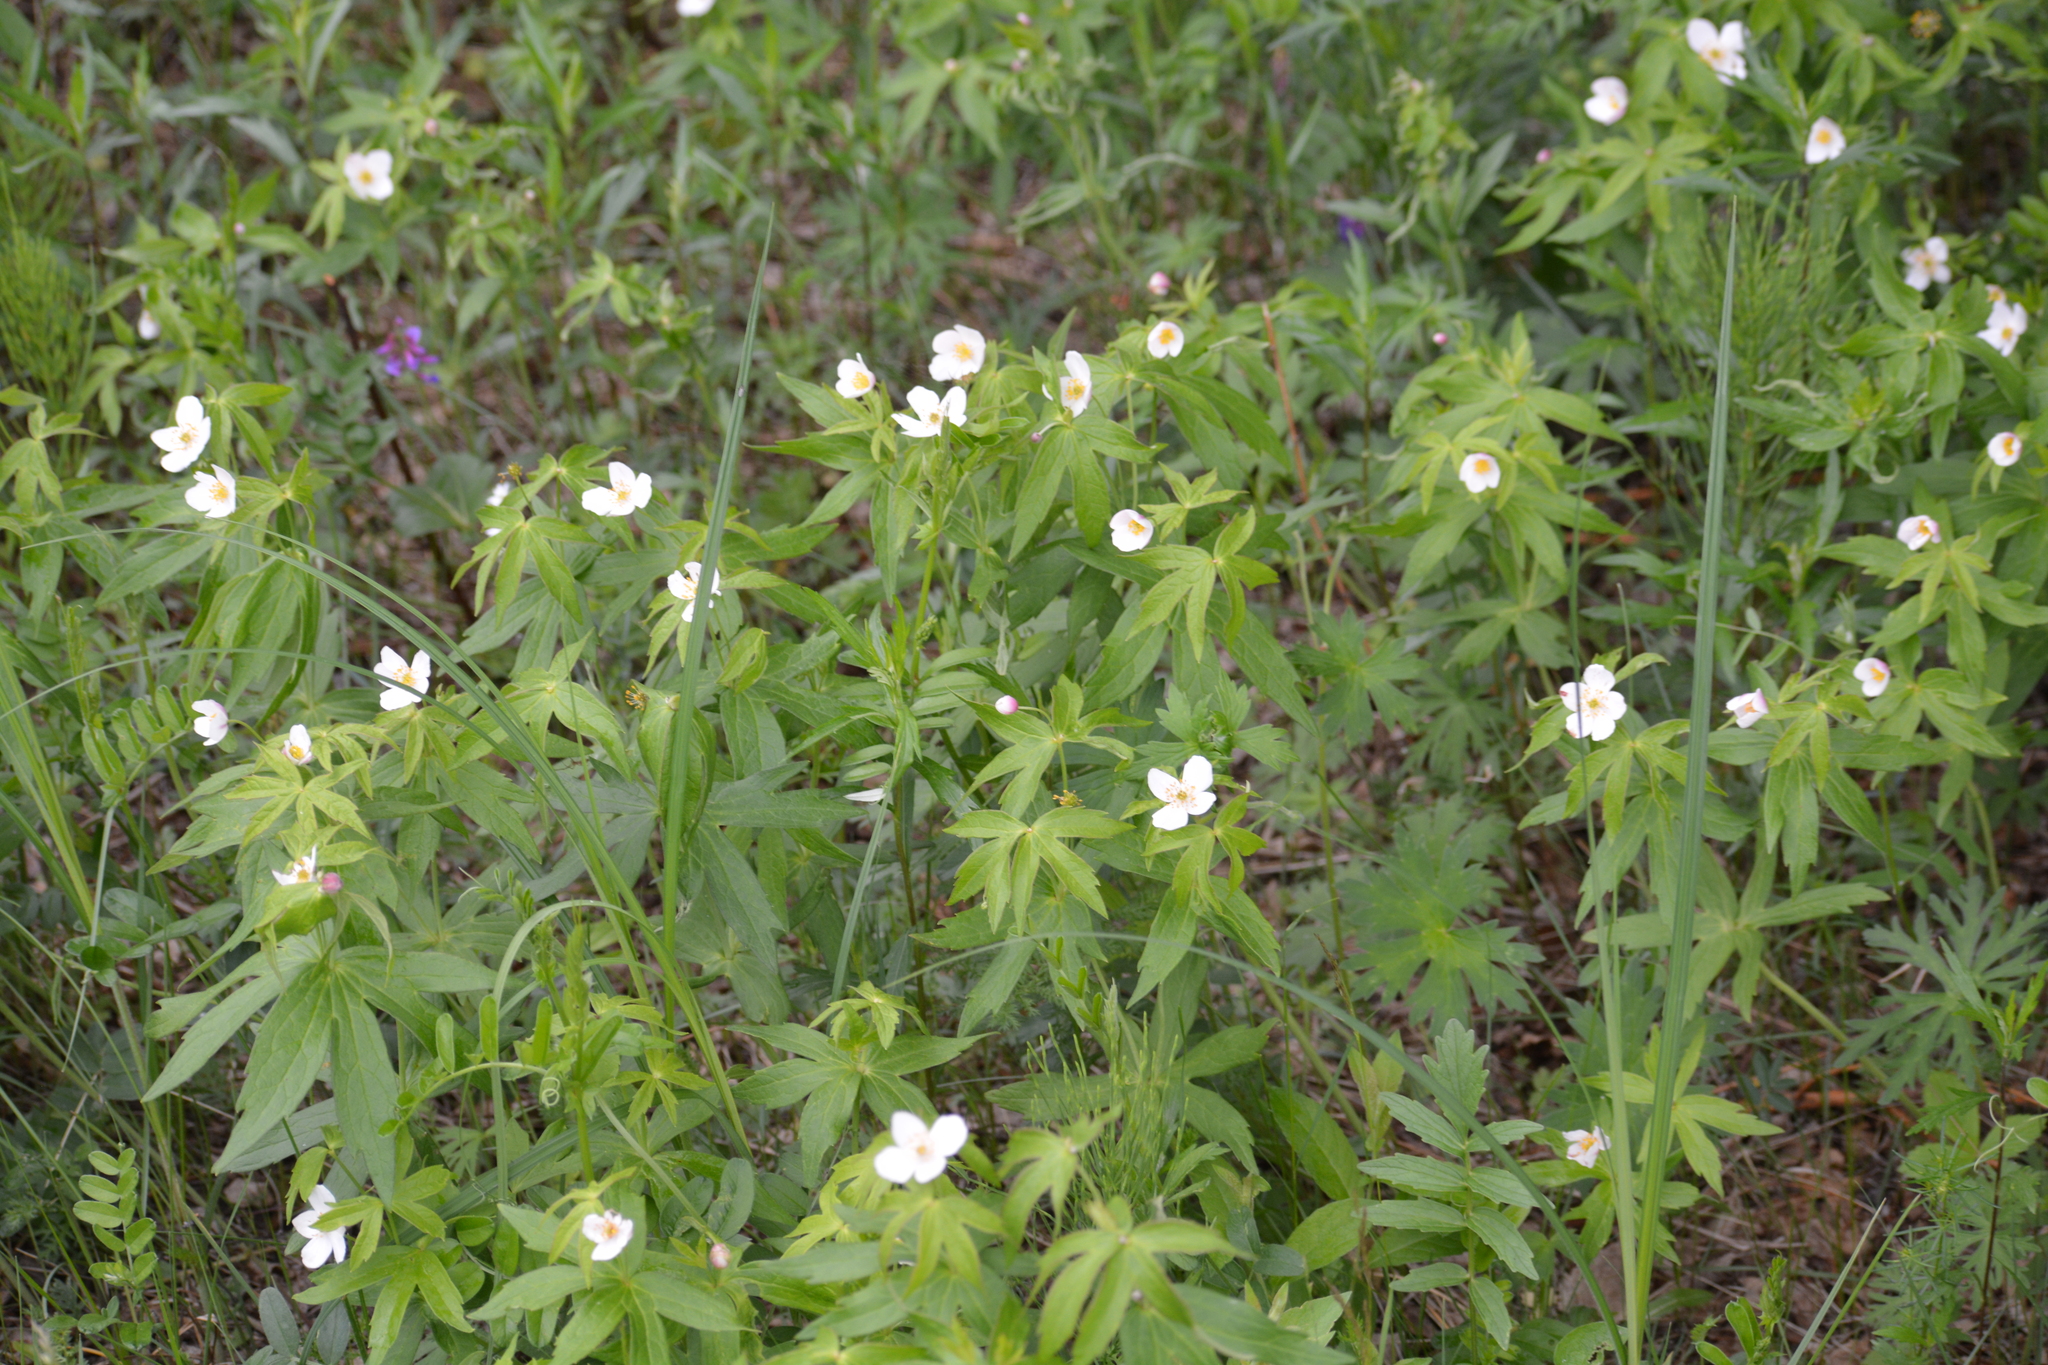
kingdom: Plantae
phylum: Tracheophyta
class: Magnoliopsida
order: Ranunculales
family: Ranunculaceae
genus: Anemonastrum
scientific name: Anemonastrum dichotomum
